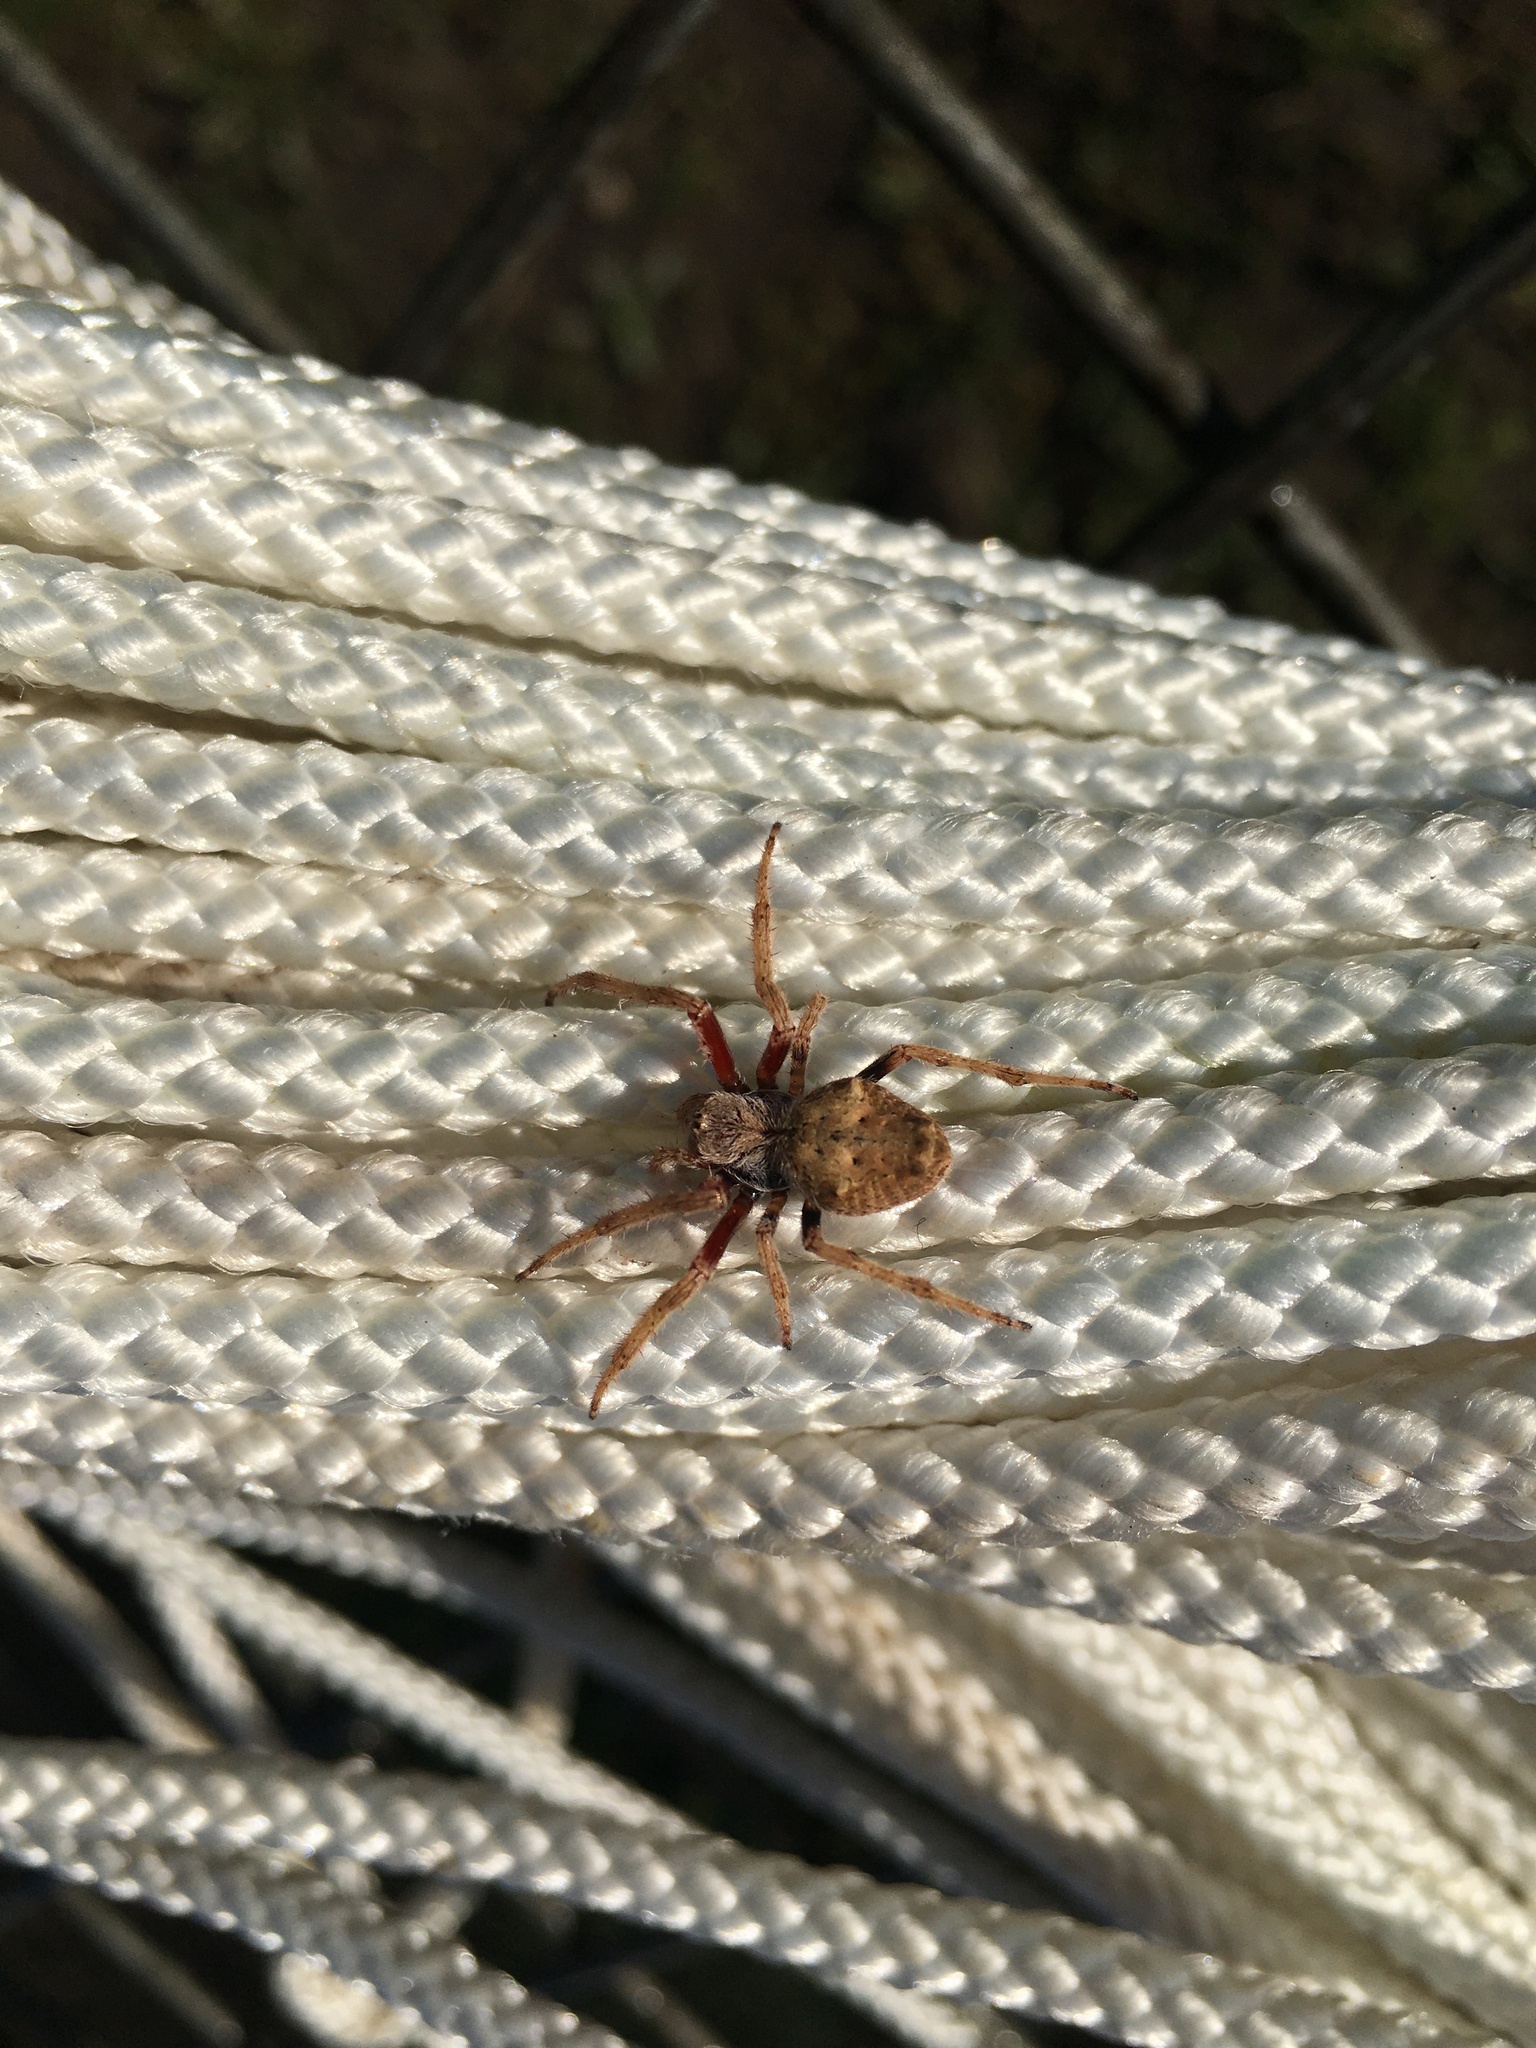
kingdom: Animalia
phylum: Arthropoda
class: Arachnida
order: Araneae
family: Araneidae
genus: Eriophora
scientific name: Eriophora pustulosa
